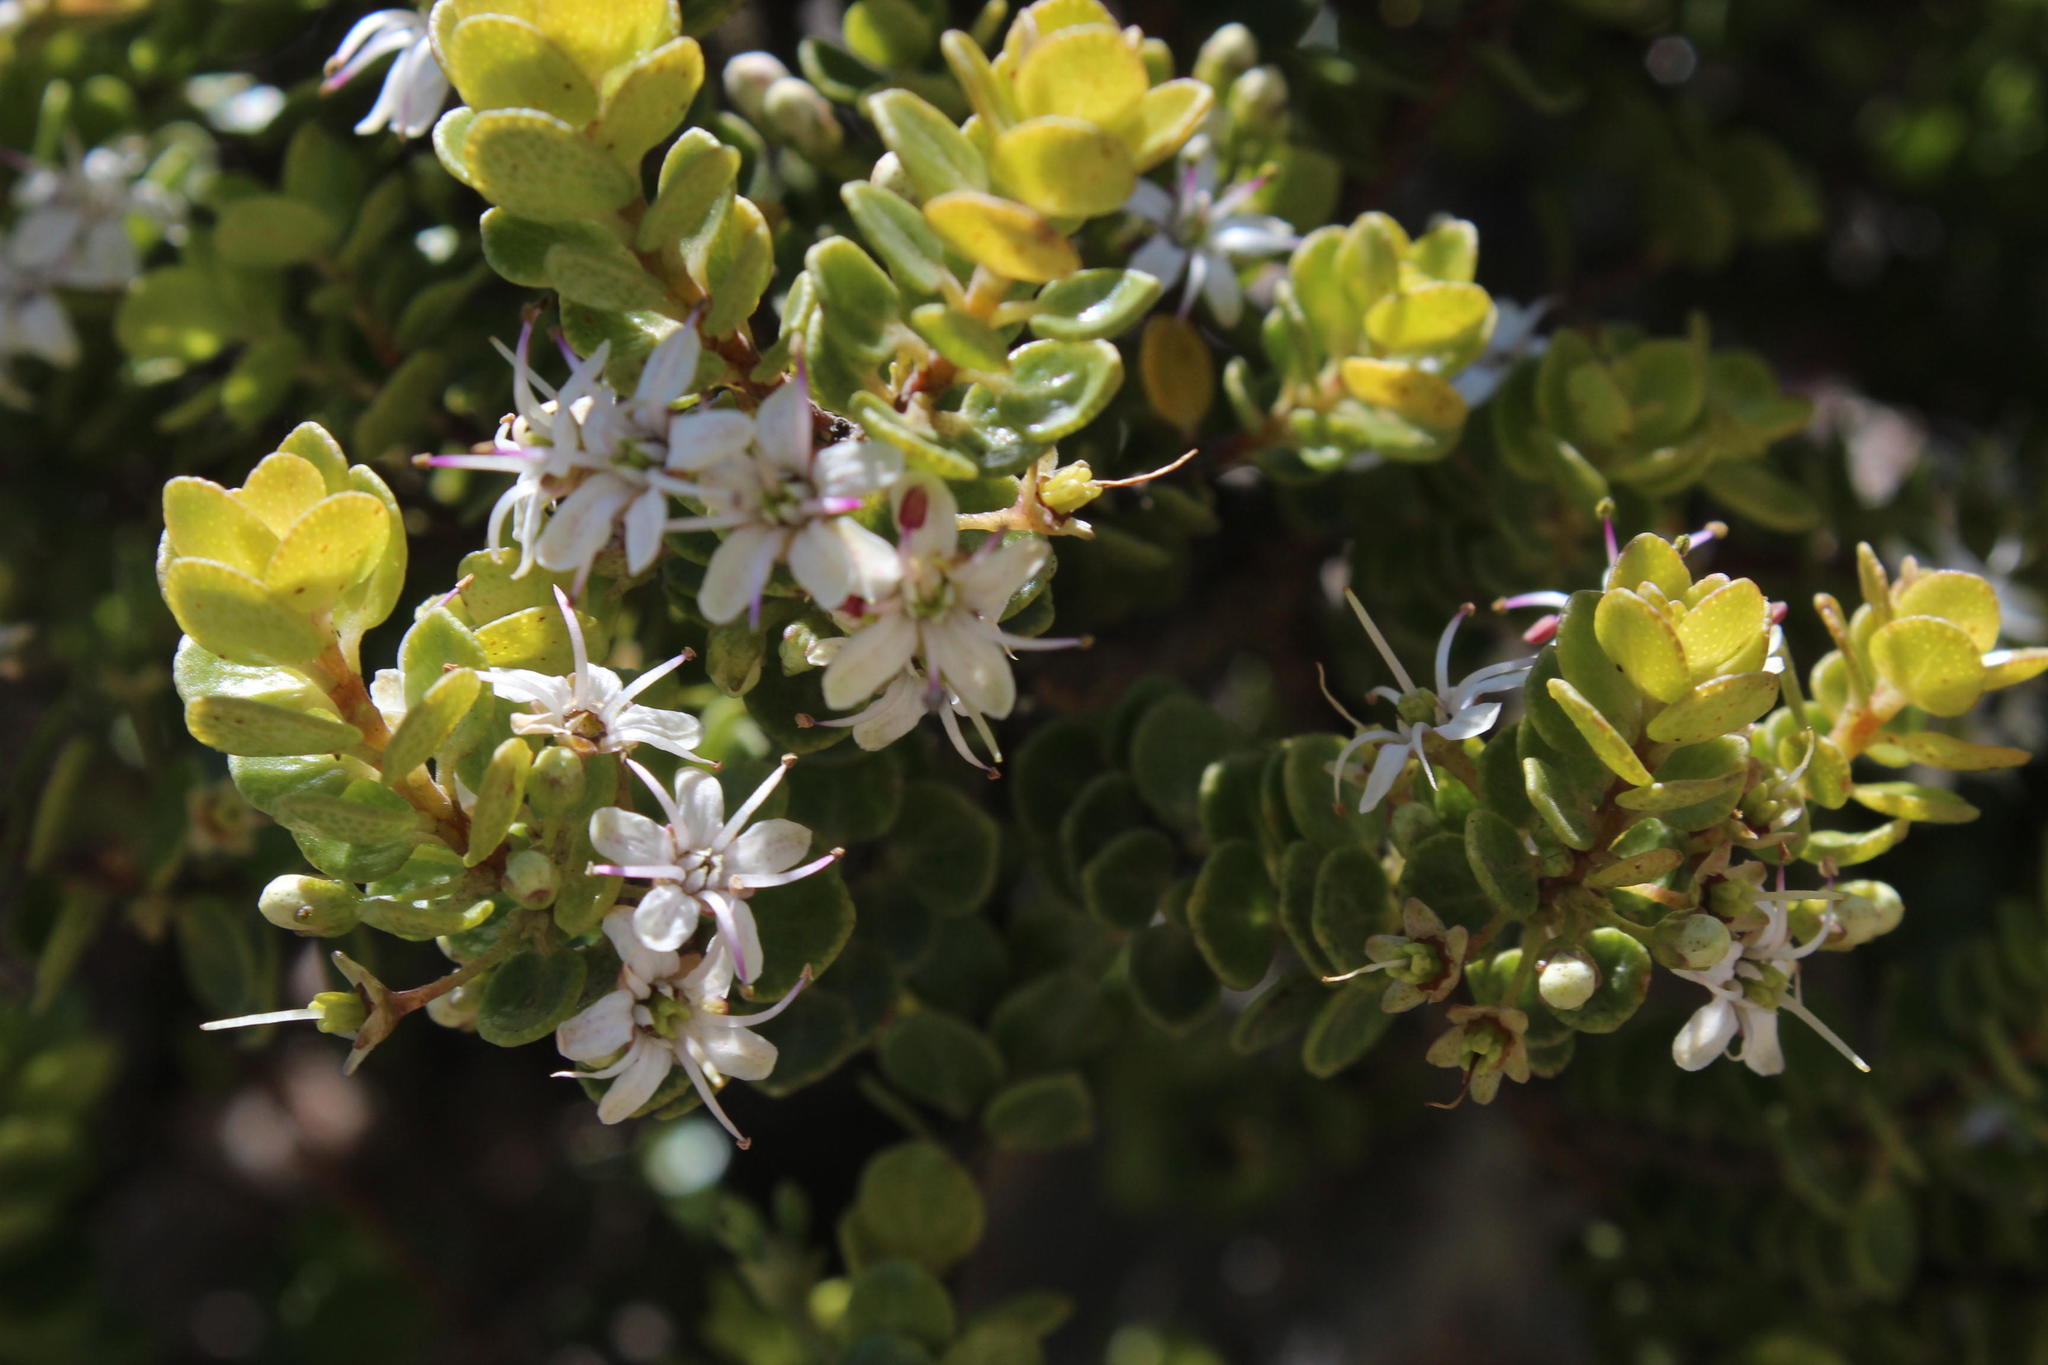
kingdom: Plantae
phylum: Tracheophyta
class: Magnoliopsida
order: Sapindales
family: Rutaceae
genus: Agathosma
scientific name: Agathosma ovata
